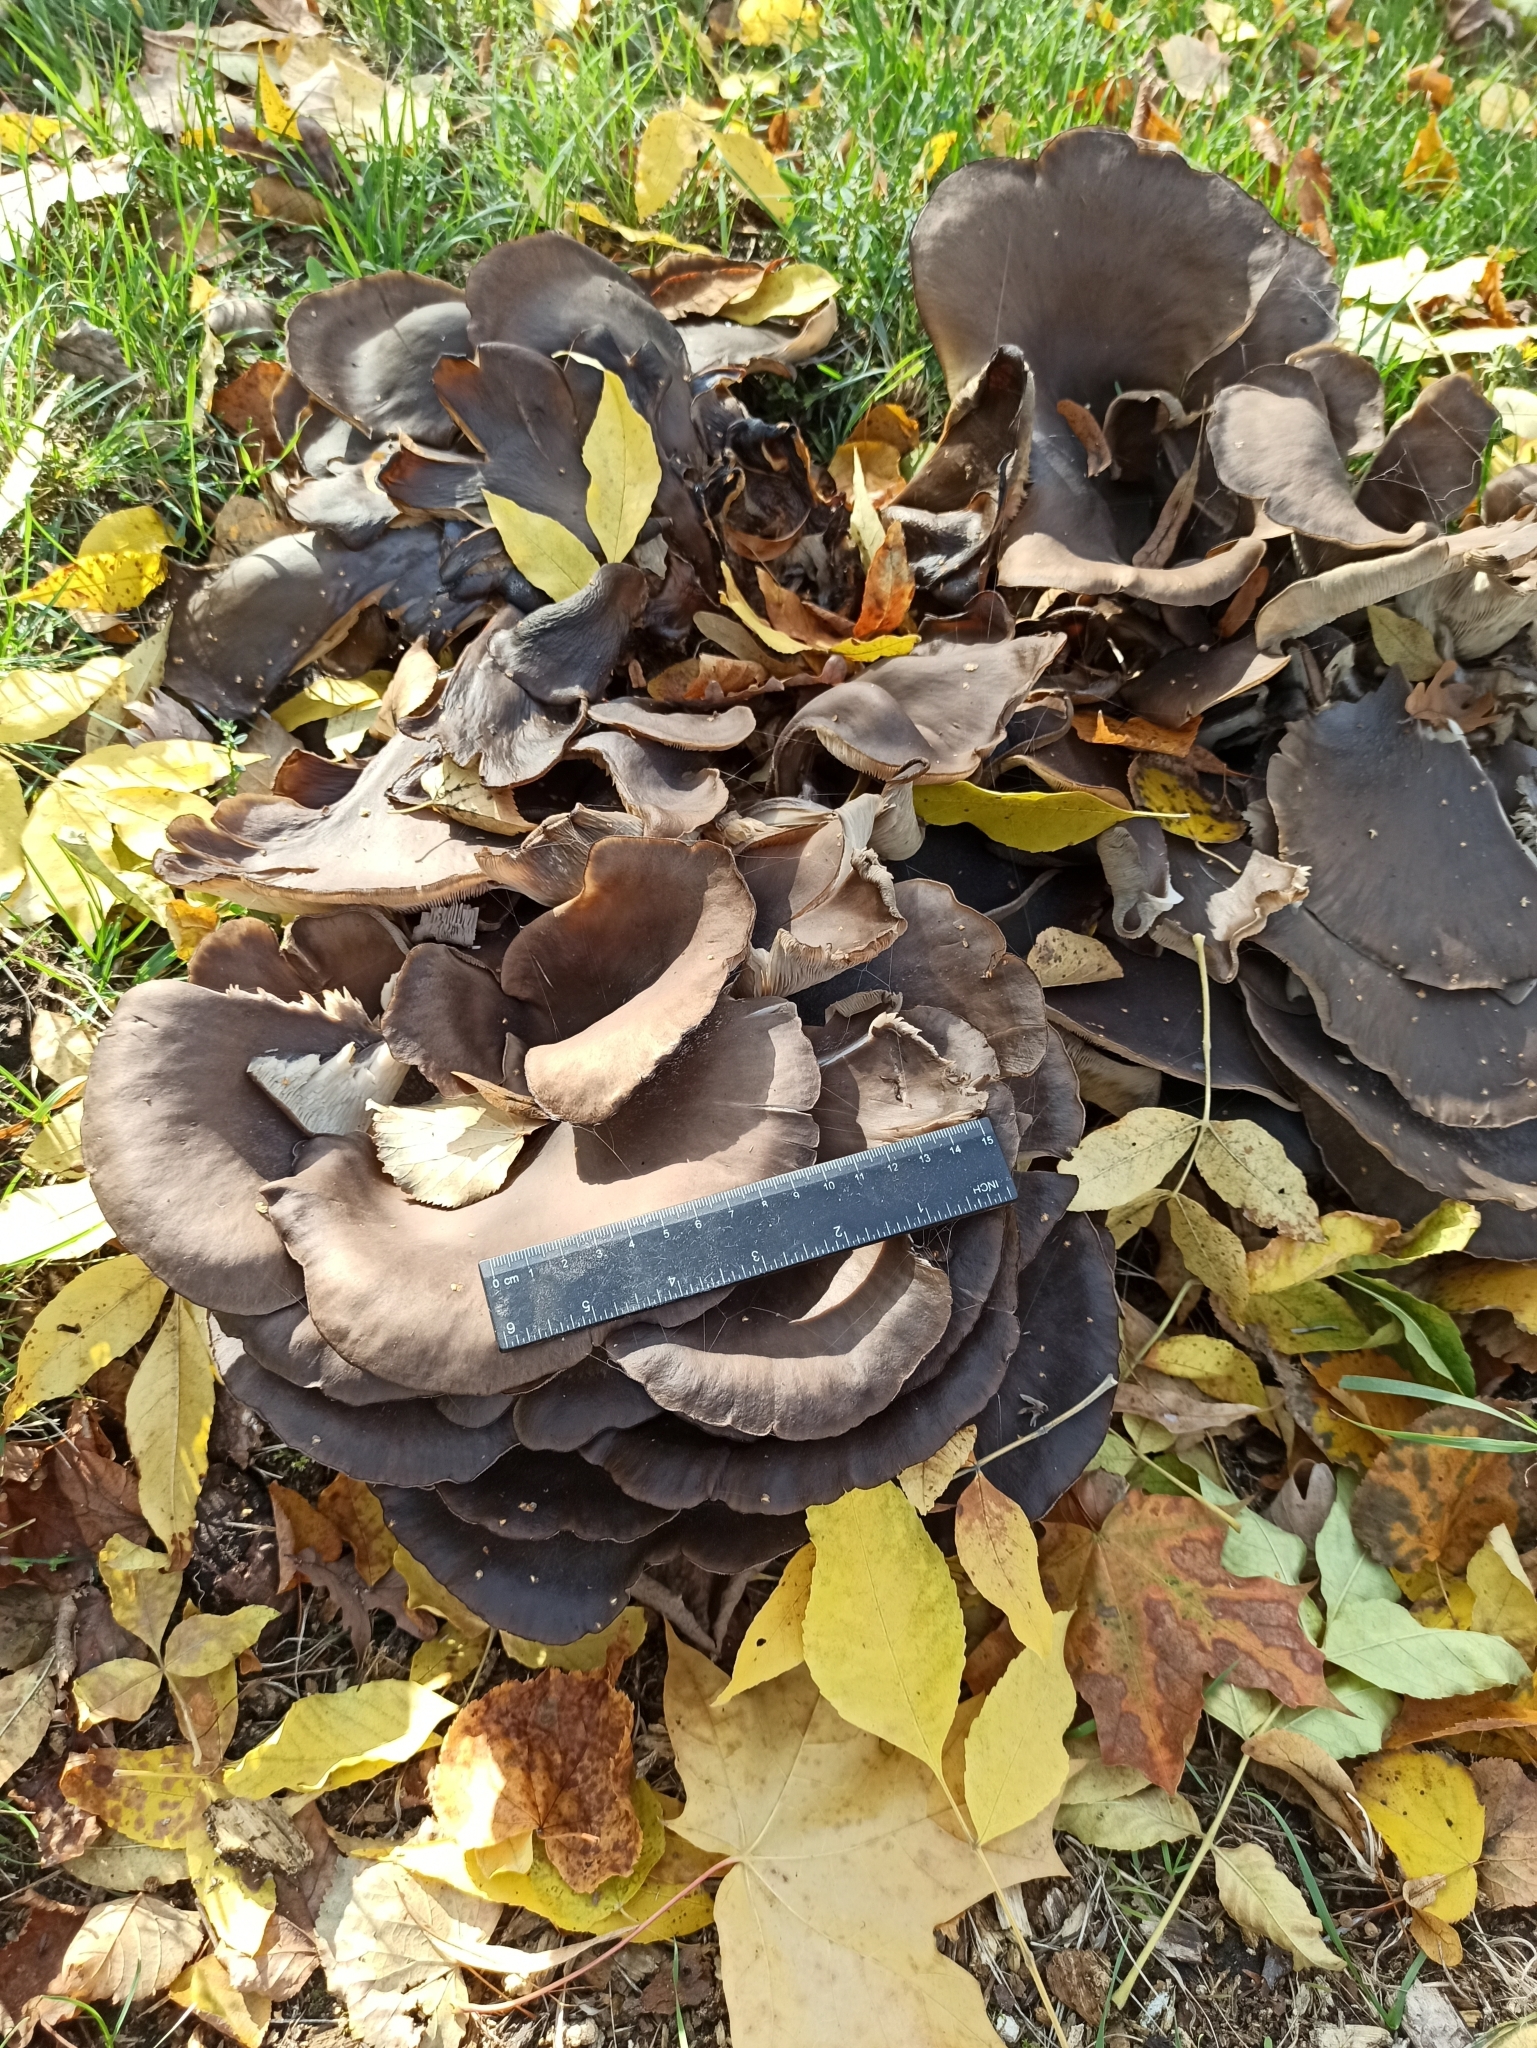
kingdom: Fungi
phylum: Basidiomycota
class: Agaricomycetes
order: Agaricales
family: Pleurotaceae
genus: Pleurotus
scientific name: Pleurotus ostreatus
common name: Oyster mushroom
